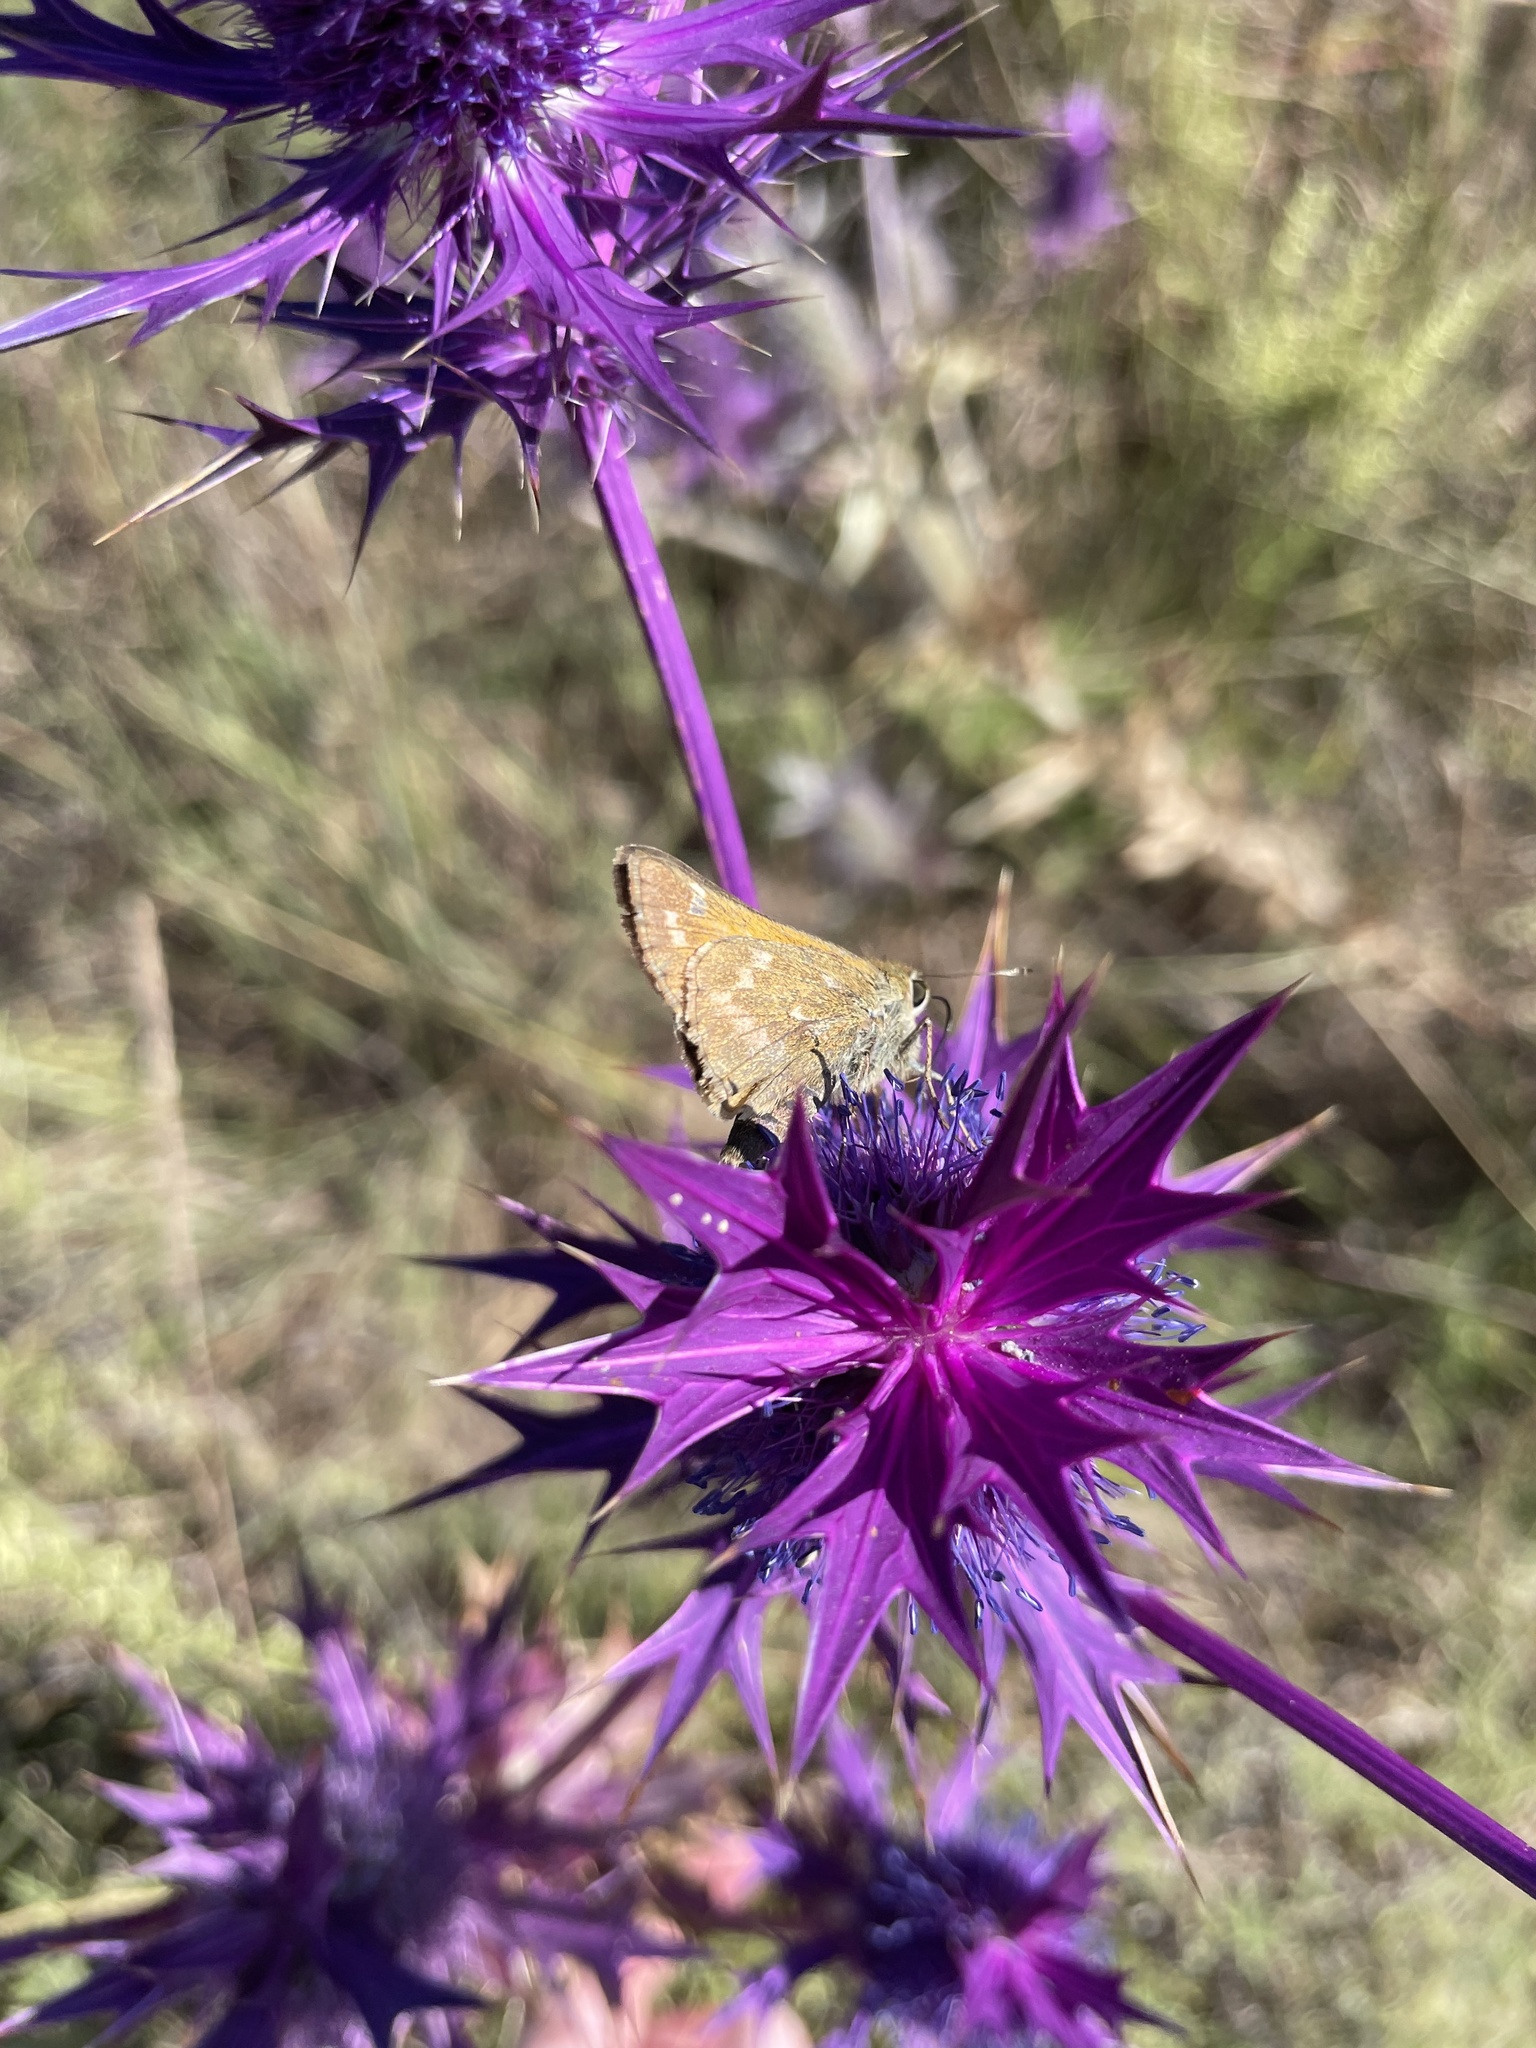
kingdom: Animalia
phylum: Arthropoda
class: Insecta
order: Lepidoptera
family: Hesperiidae
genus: Atalopedes
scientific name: Atalopedes
